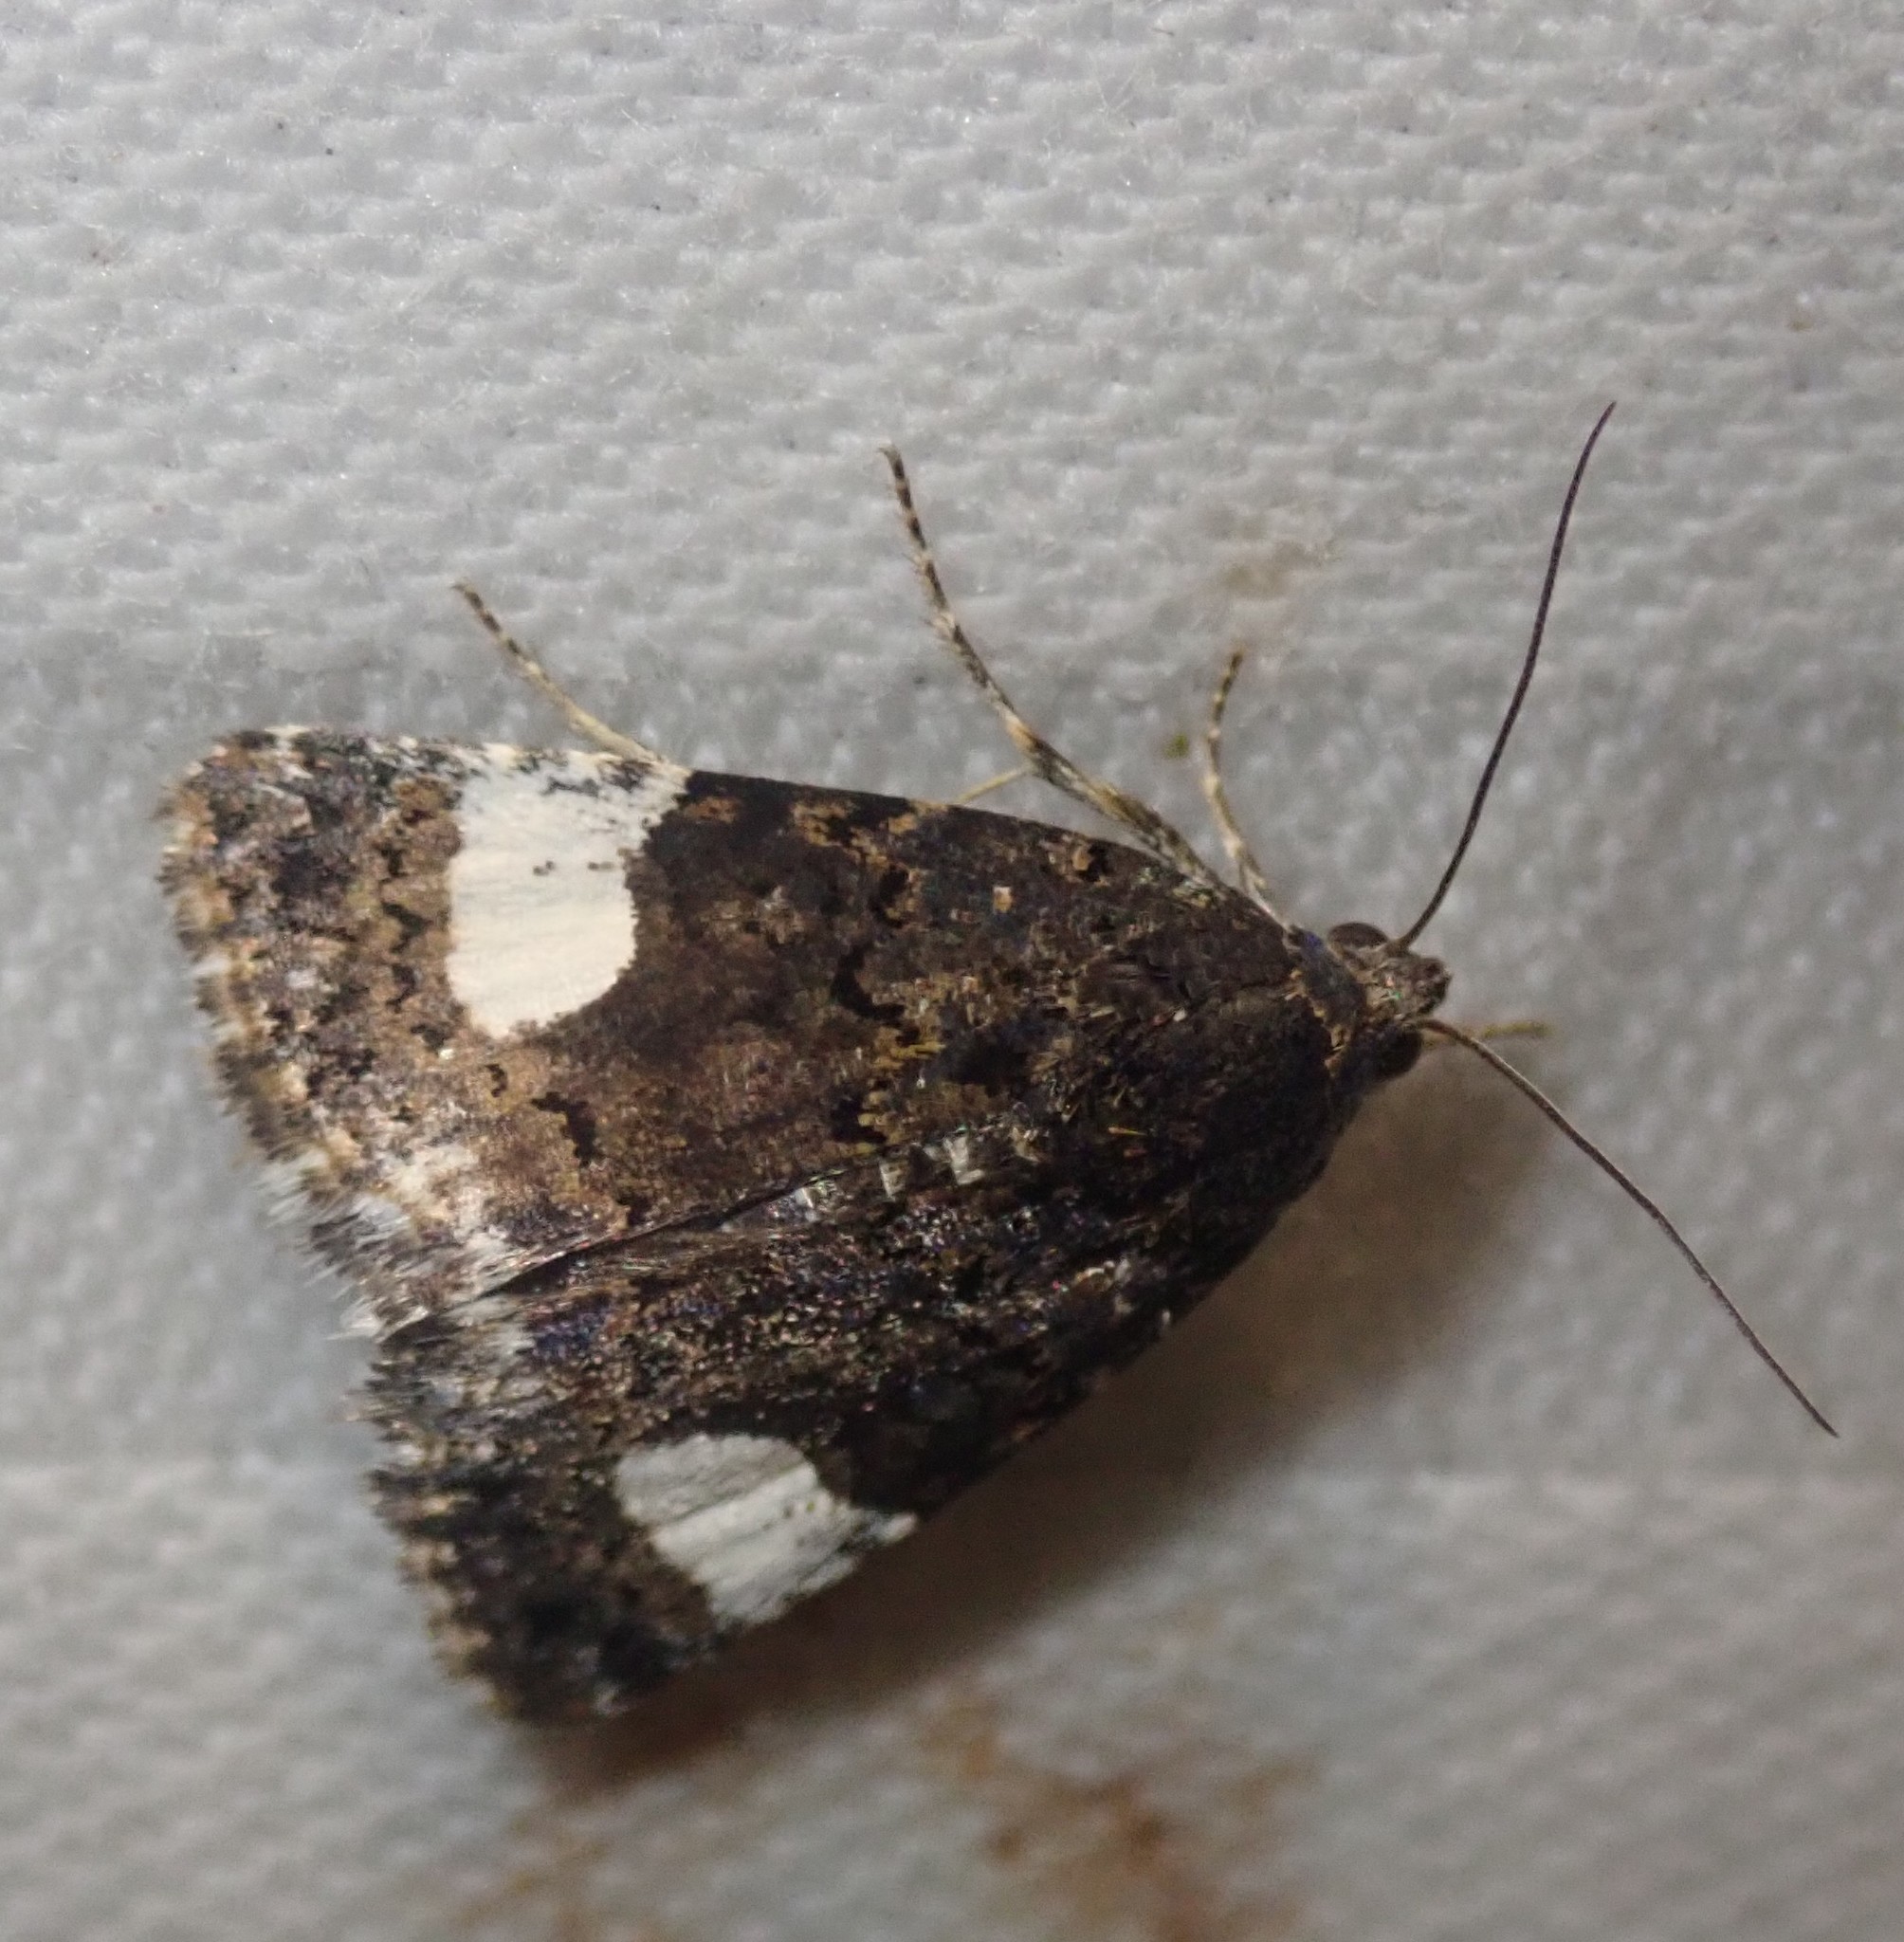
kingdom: Animalia
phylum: Arthropoda
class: Insecta
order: Lepidoptera
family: Erebidae
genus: Tyta
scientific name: Tyta luctuosa
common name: Four-spotted
